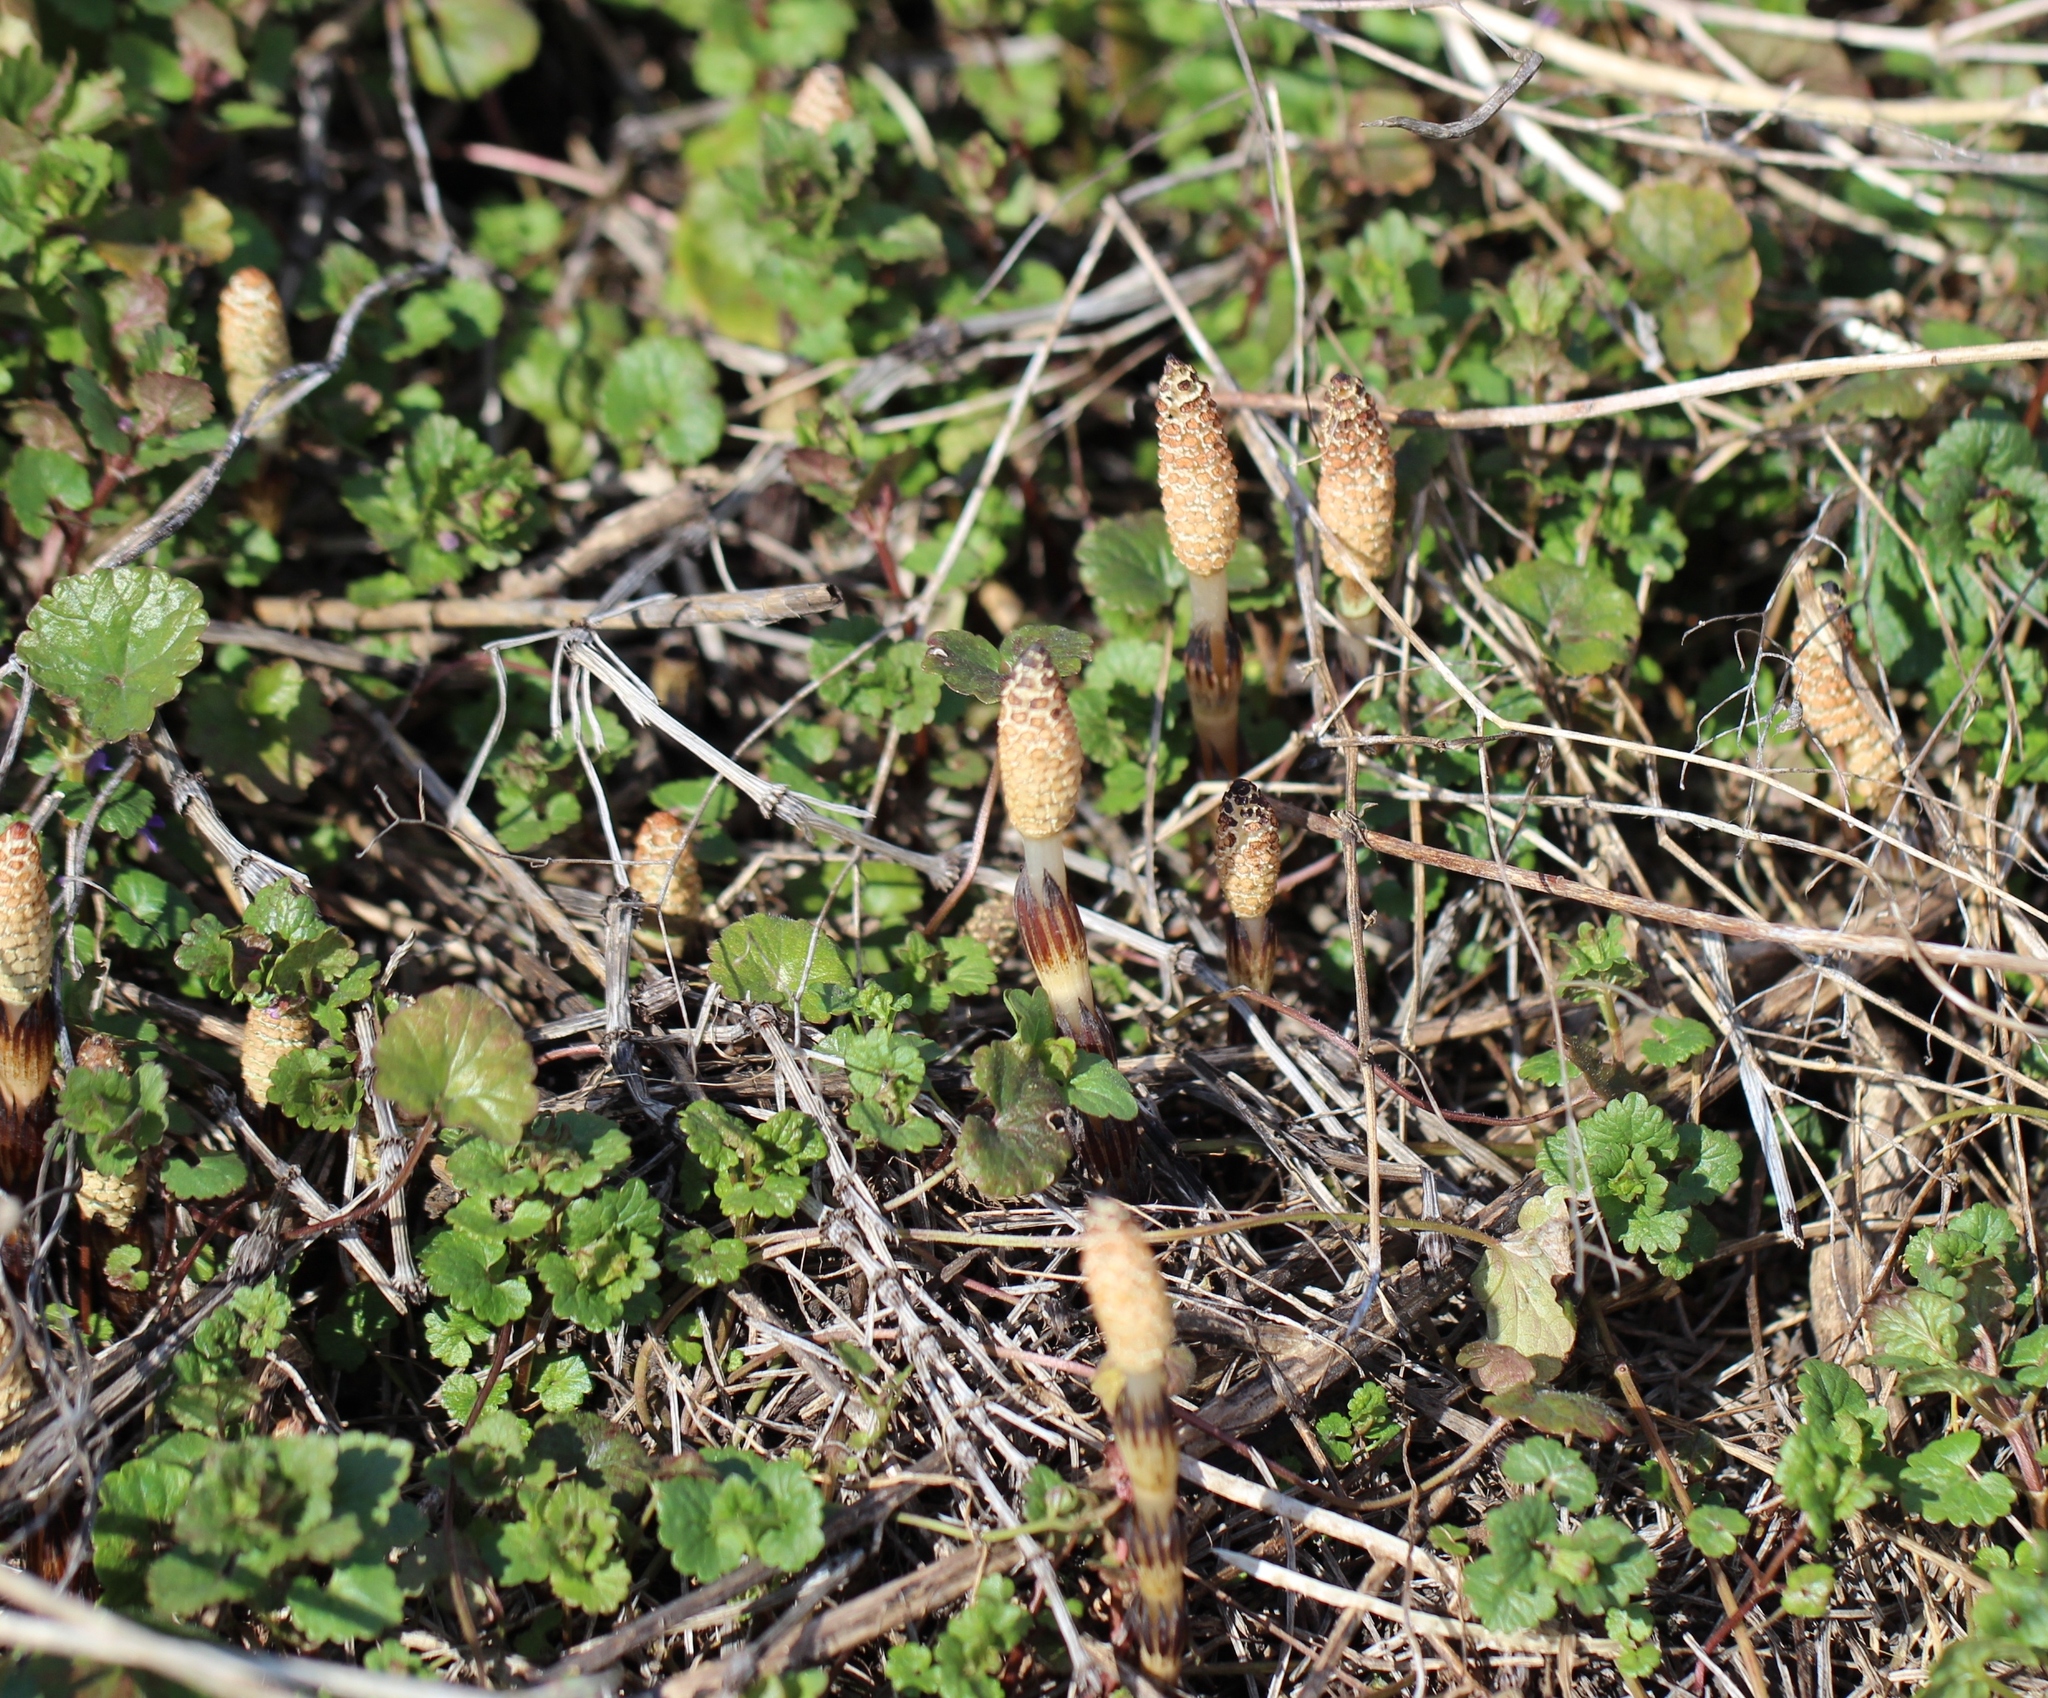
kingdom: Plantae
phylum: Tracheophyta
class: Polypodiopsida
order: Equisetales
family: Equisetaceae
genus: Equisetum
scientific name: Equisetum arvense
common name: Field horsetail
